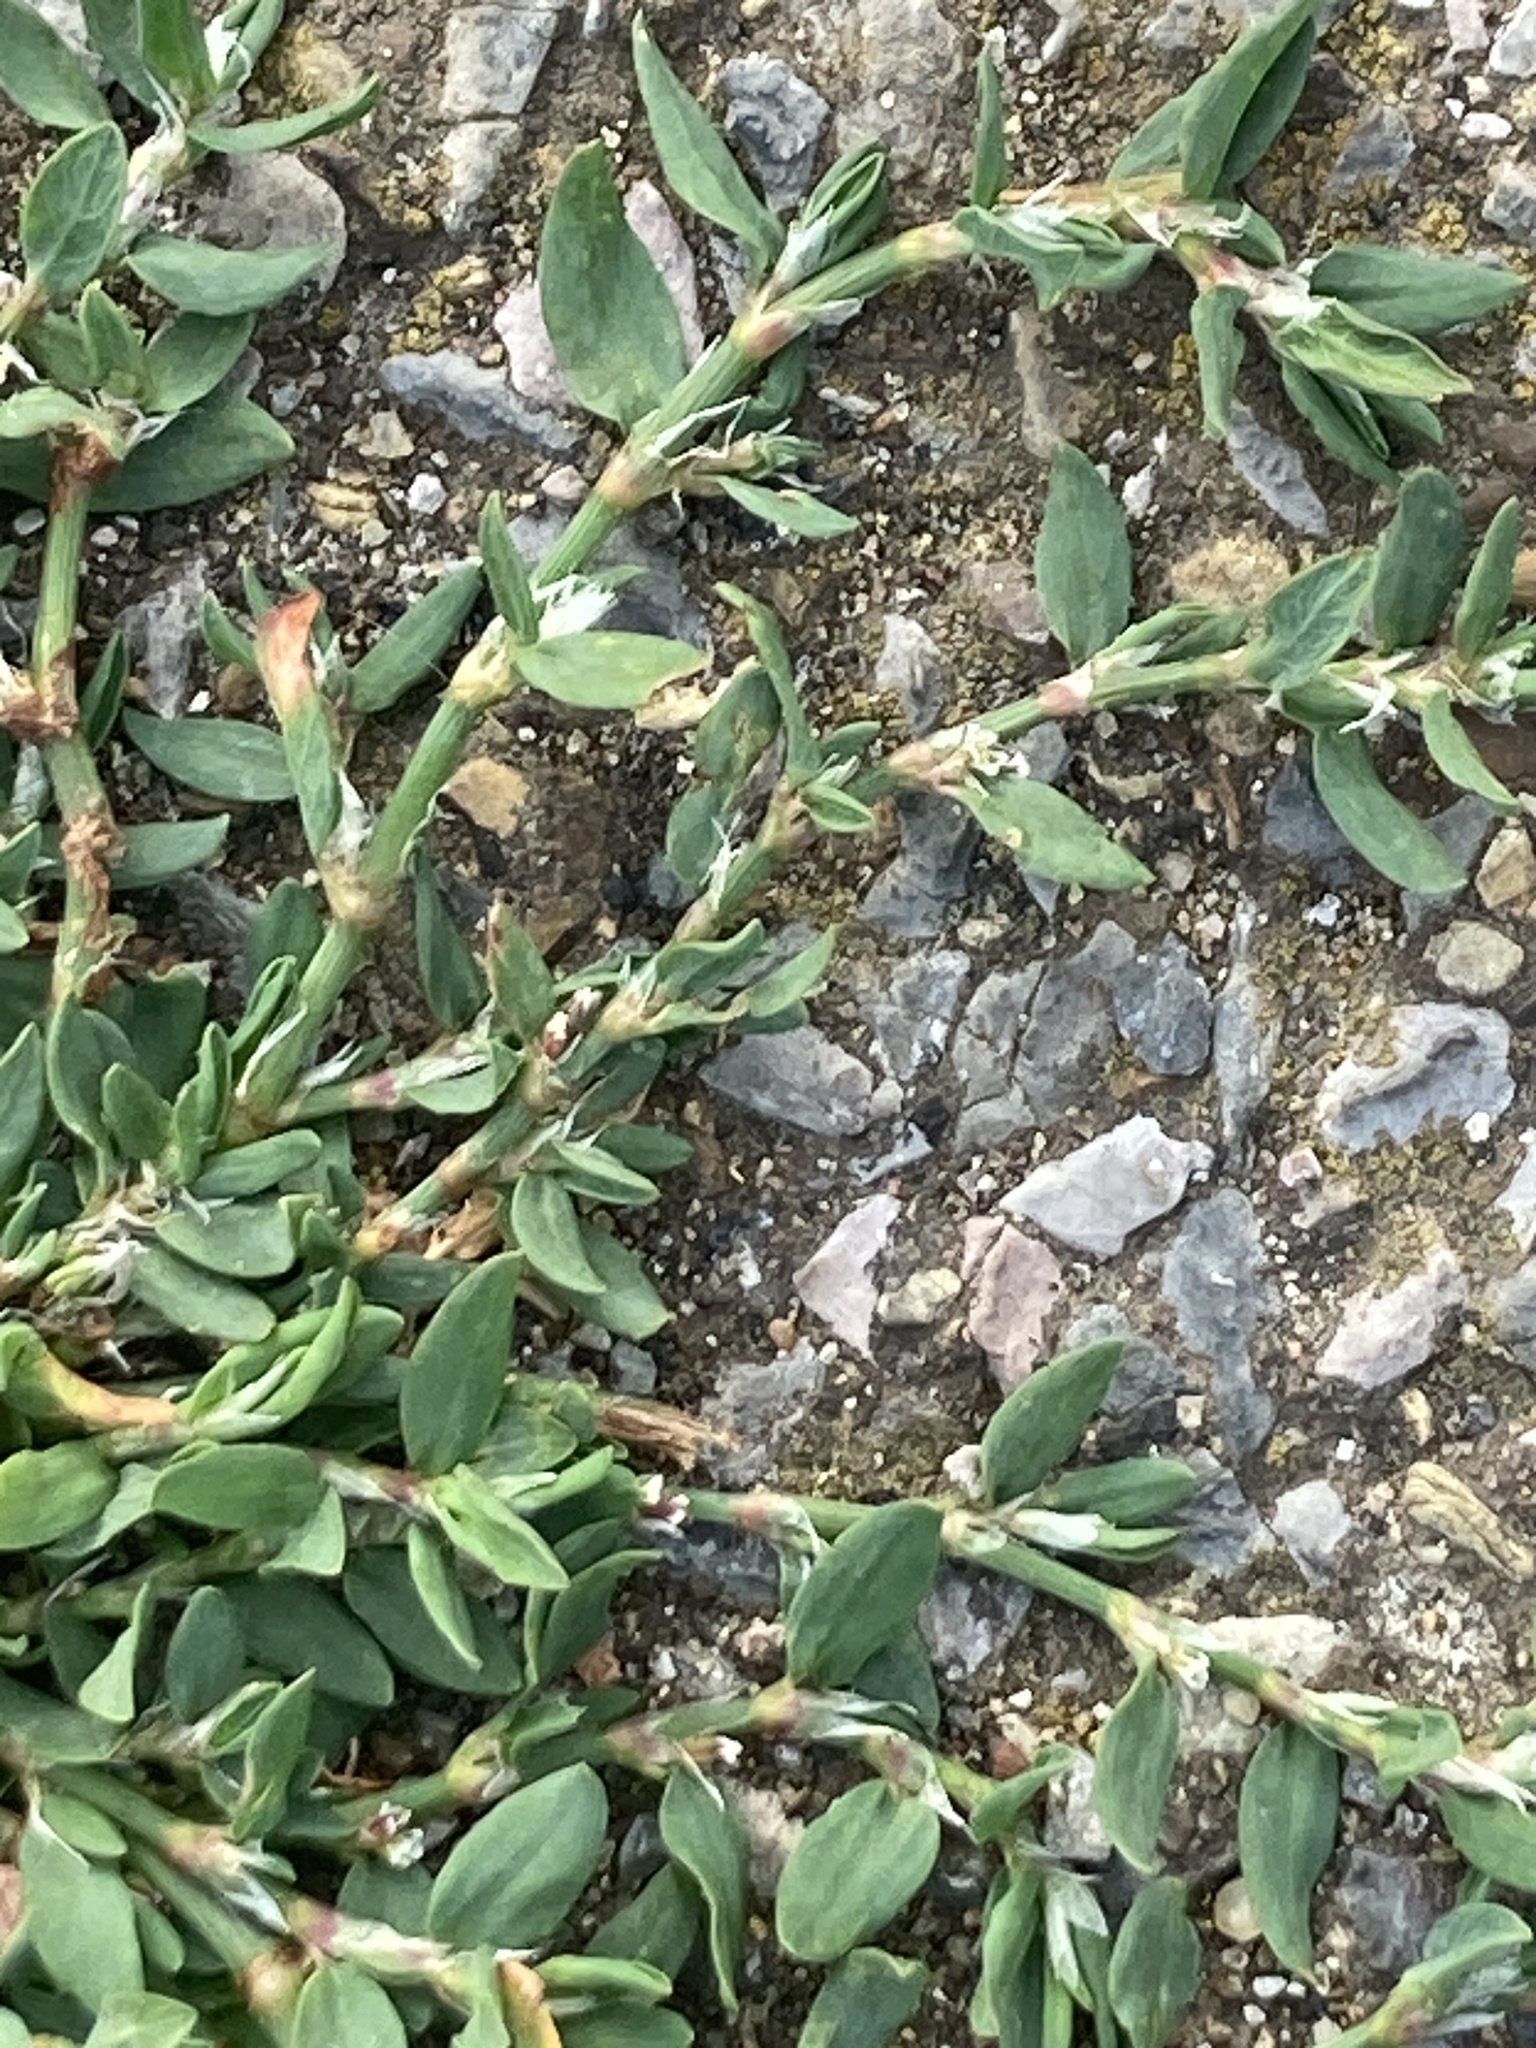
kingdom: Plantae
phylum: Tracheophyta
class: Magnoliopsida
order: Caryophyllales
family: Polygonaceae
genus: Polygonum
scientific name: Polygonum aviculare
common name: Prostrate knotweed
